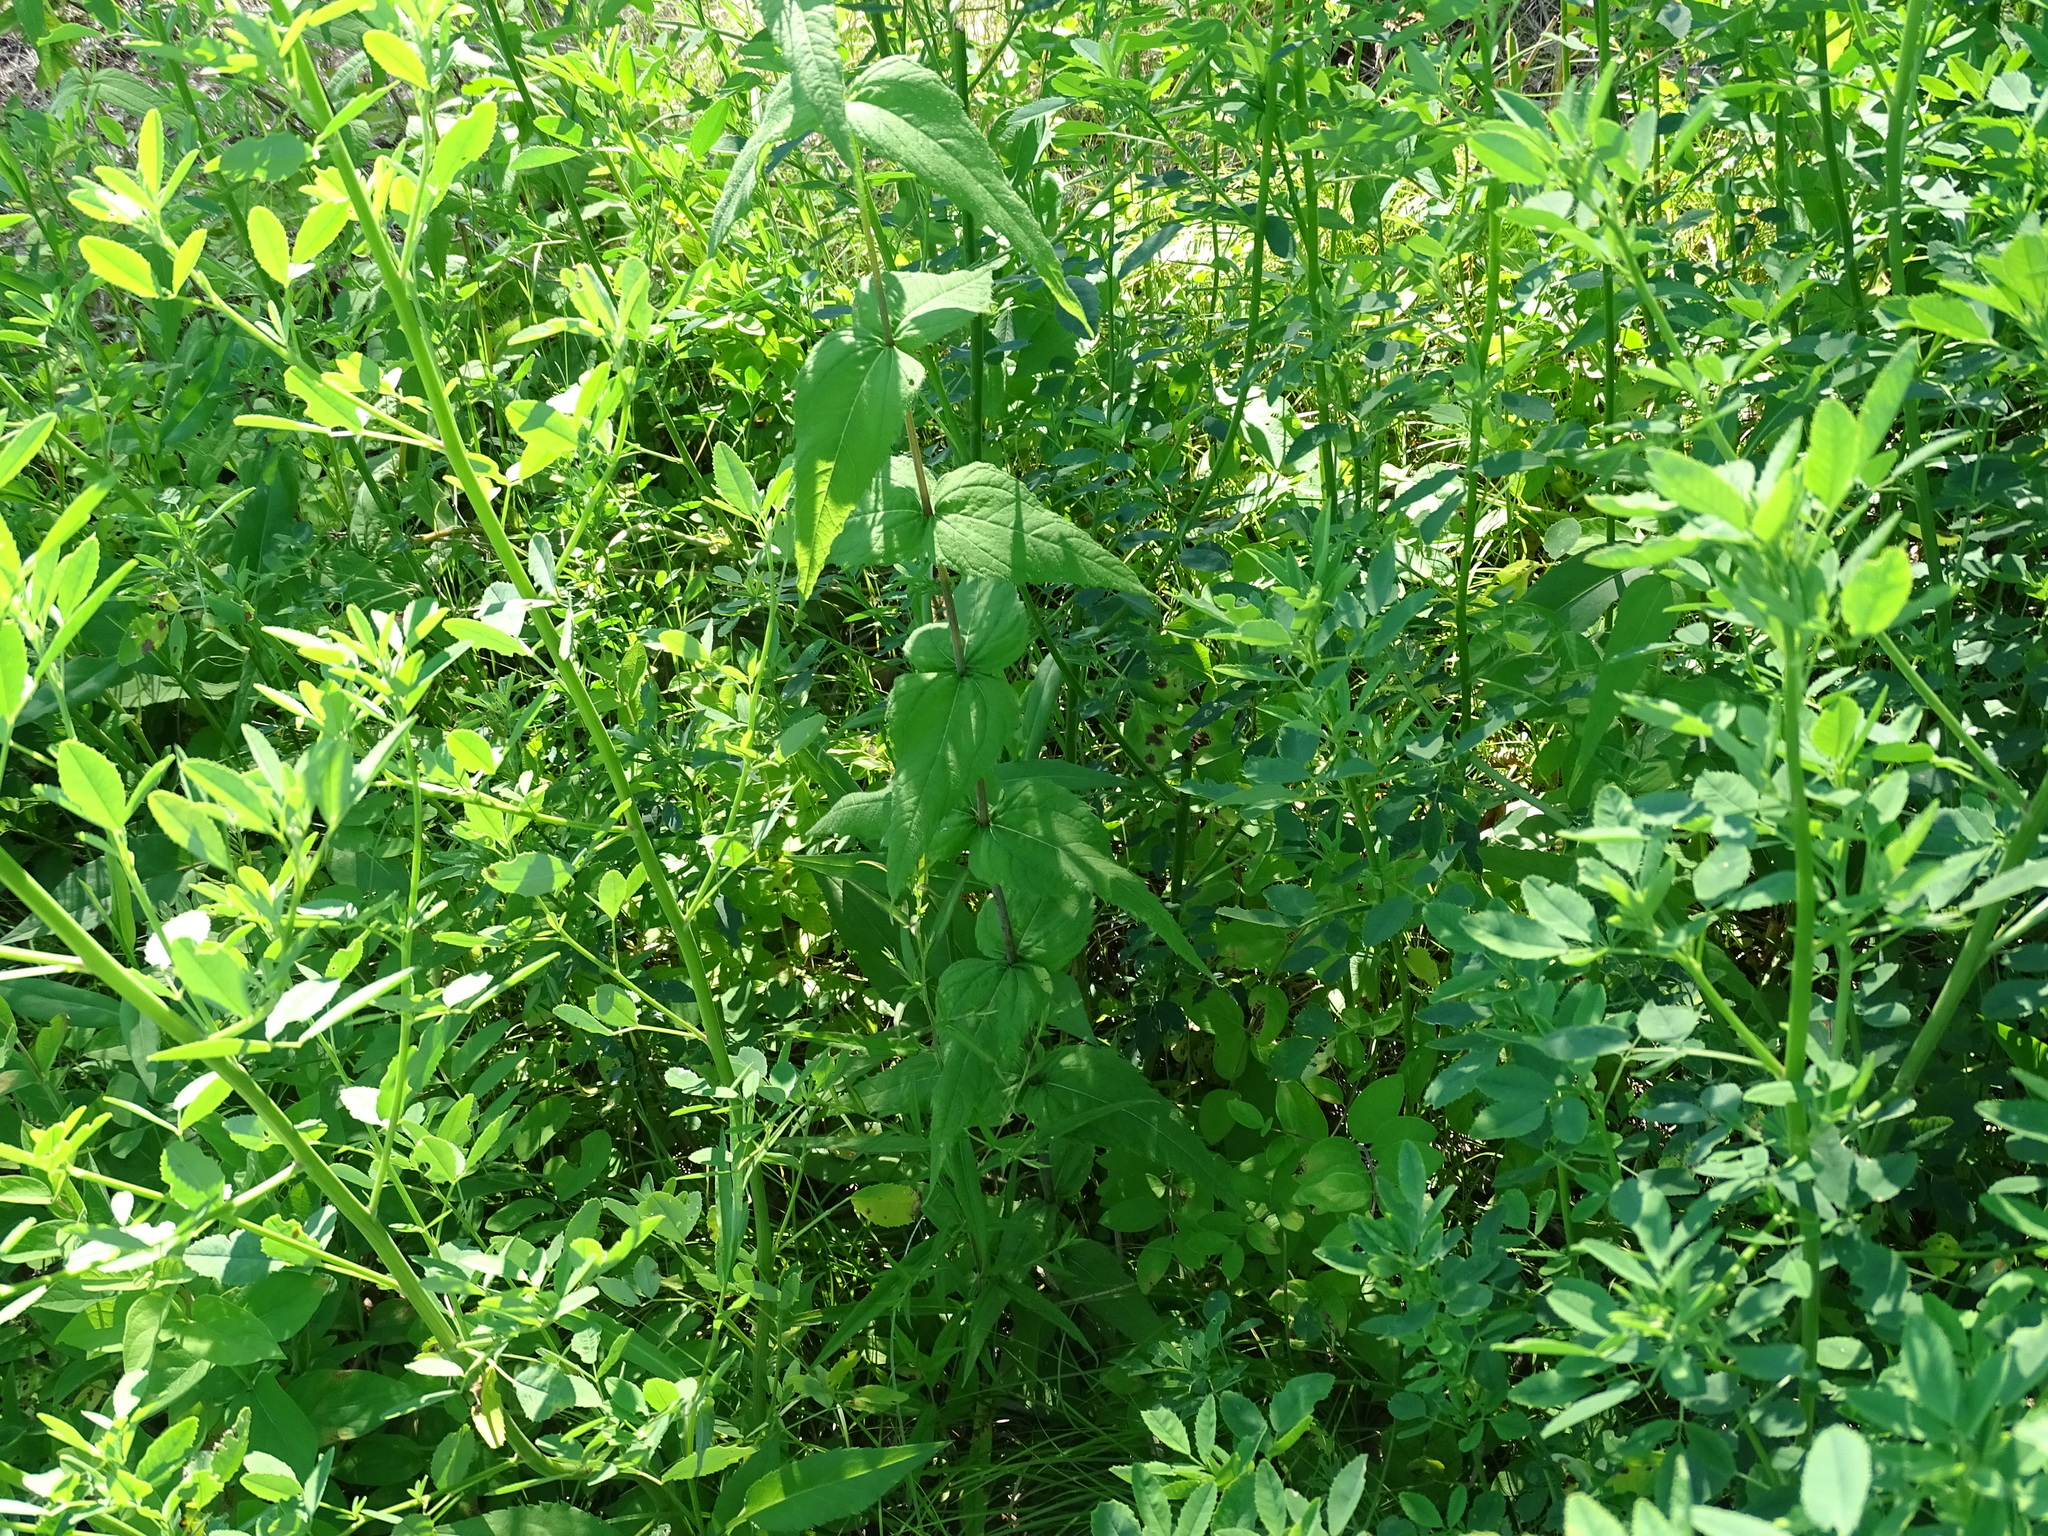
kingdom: Plantae
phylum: Tracheophyta
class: Magnoliopsida
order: Asterales
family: Asteraceae
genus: Helianthus
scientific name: Helianthus divaricatus
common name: Divergent sunflower
